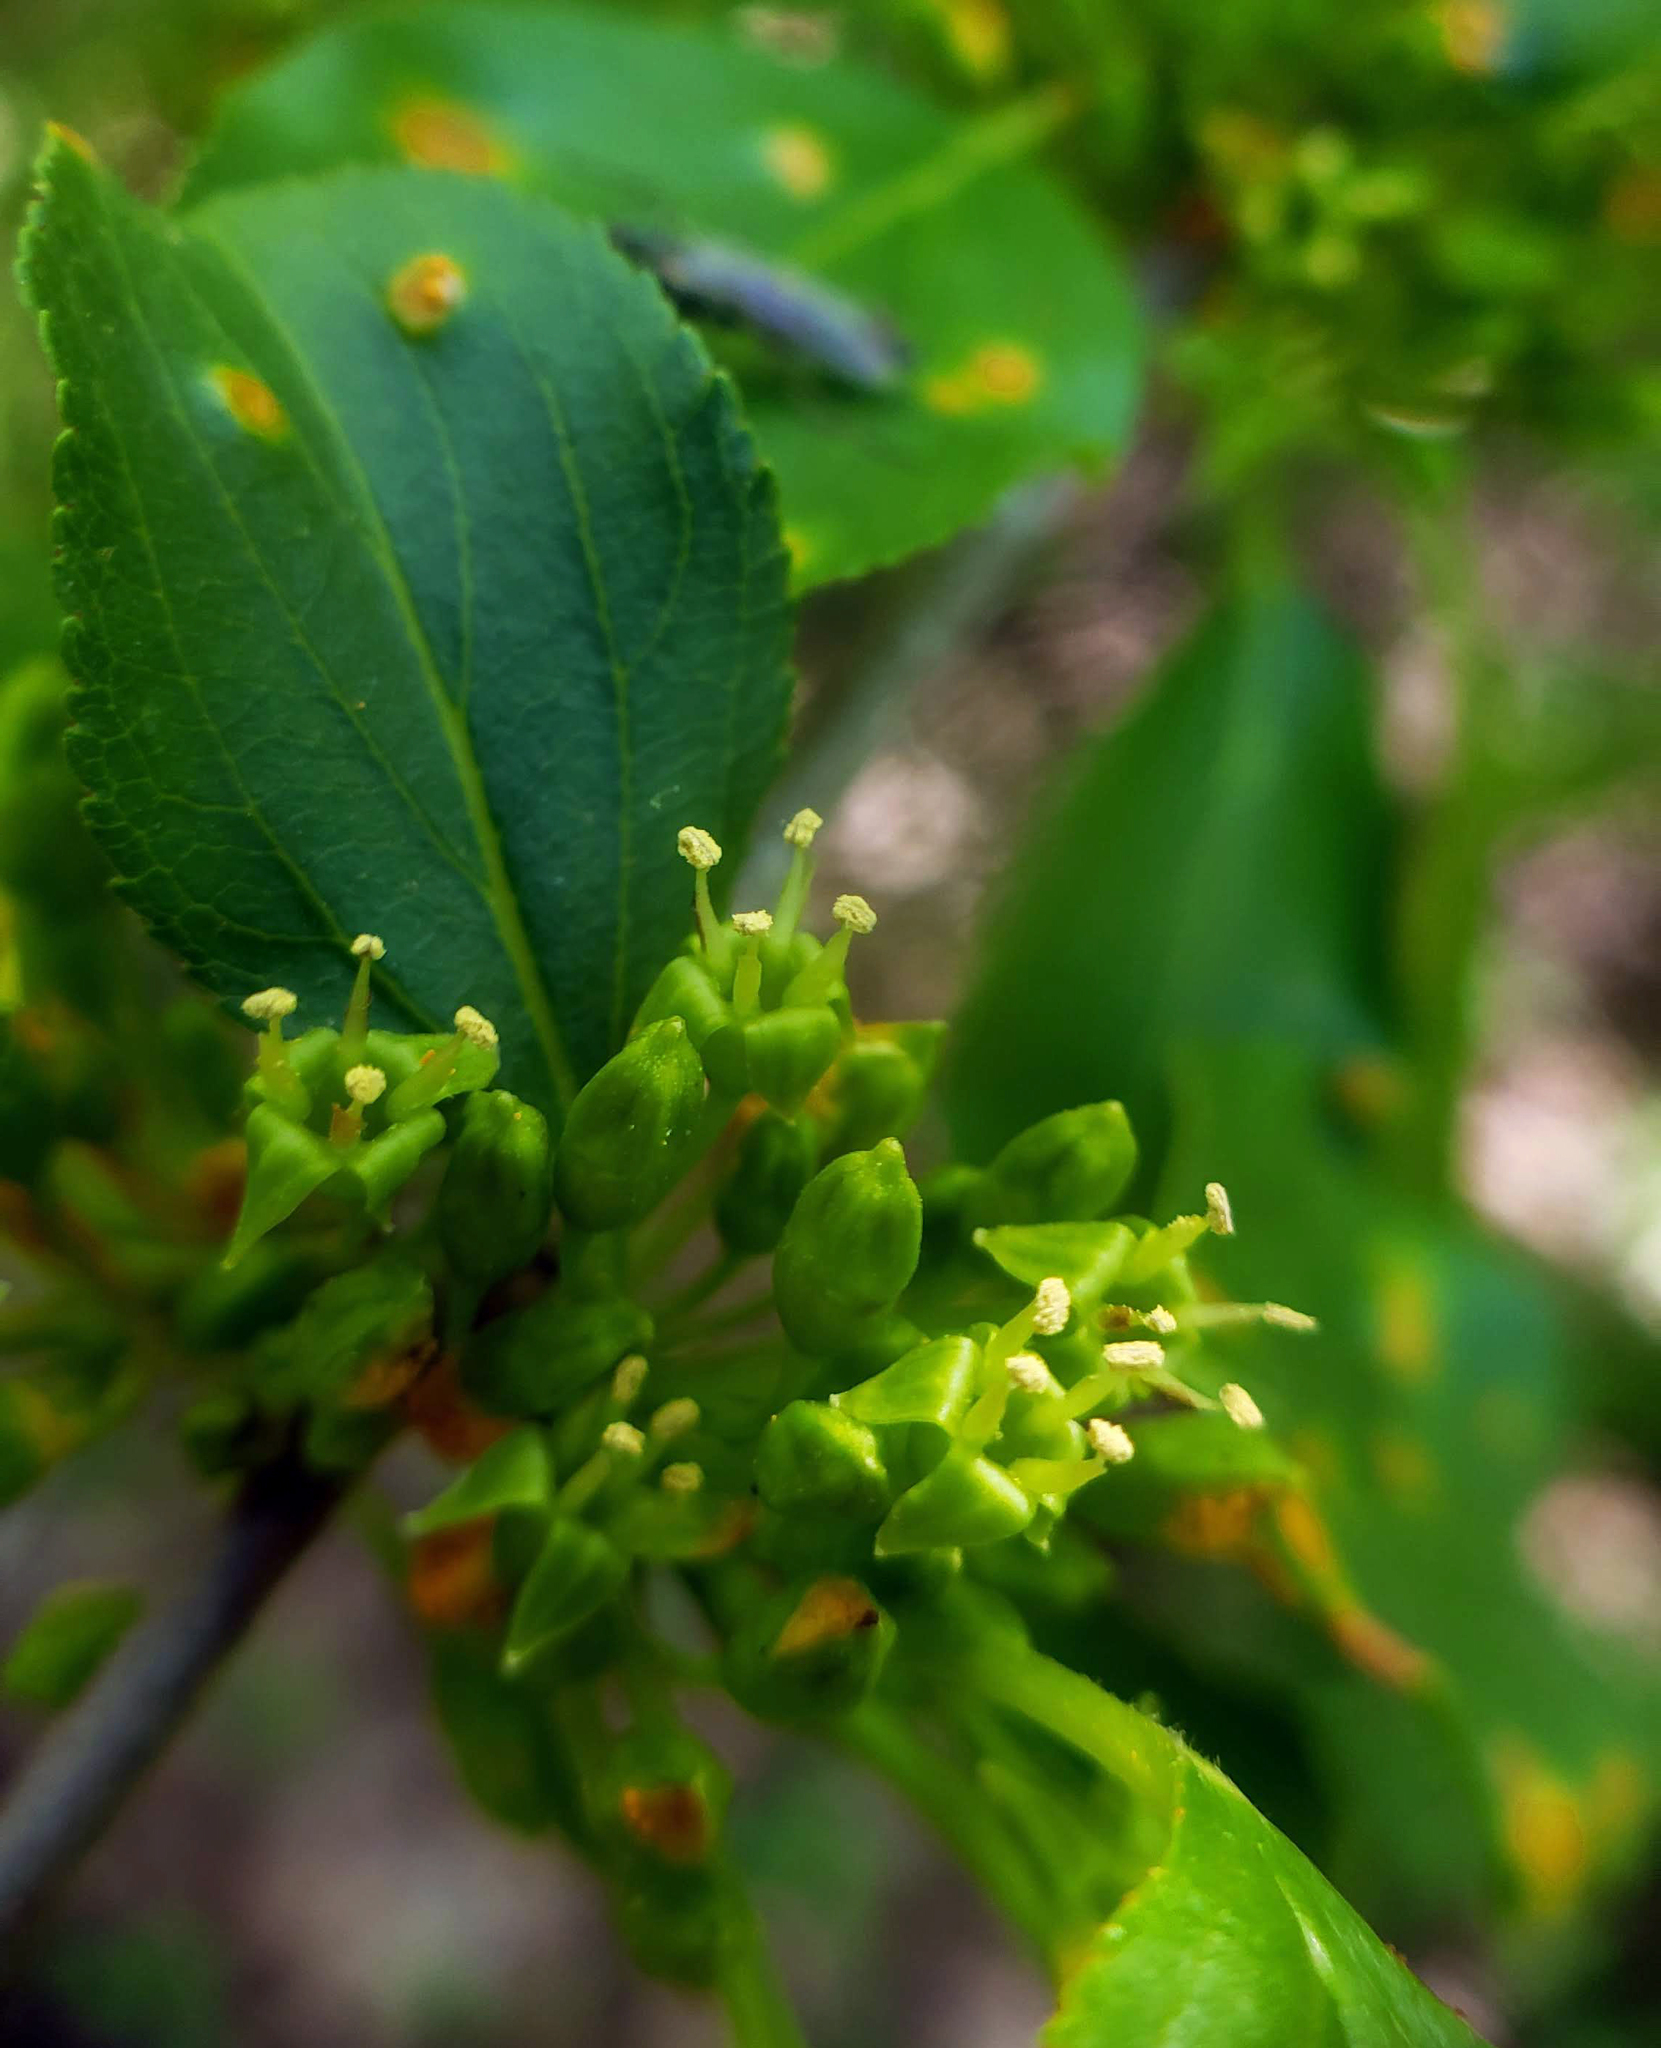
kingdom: Plantae
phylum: Tracheophyta
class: Magnoliopsida
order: Rosales
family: Rhamnaceae
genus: Rhamnus
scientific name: Rhamnus cathartica
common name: Common buckthorn
